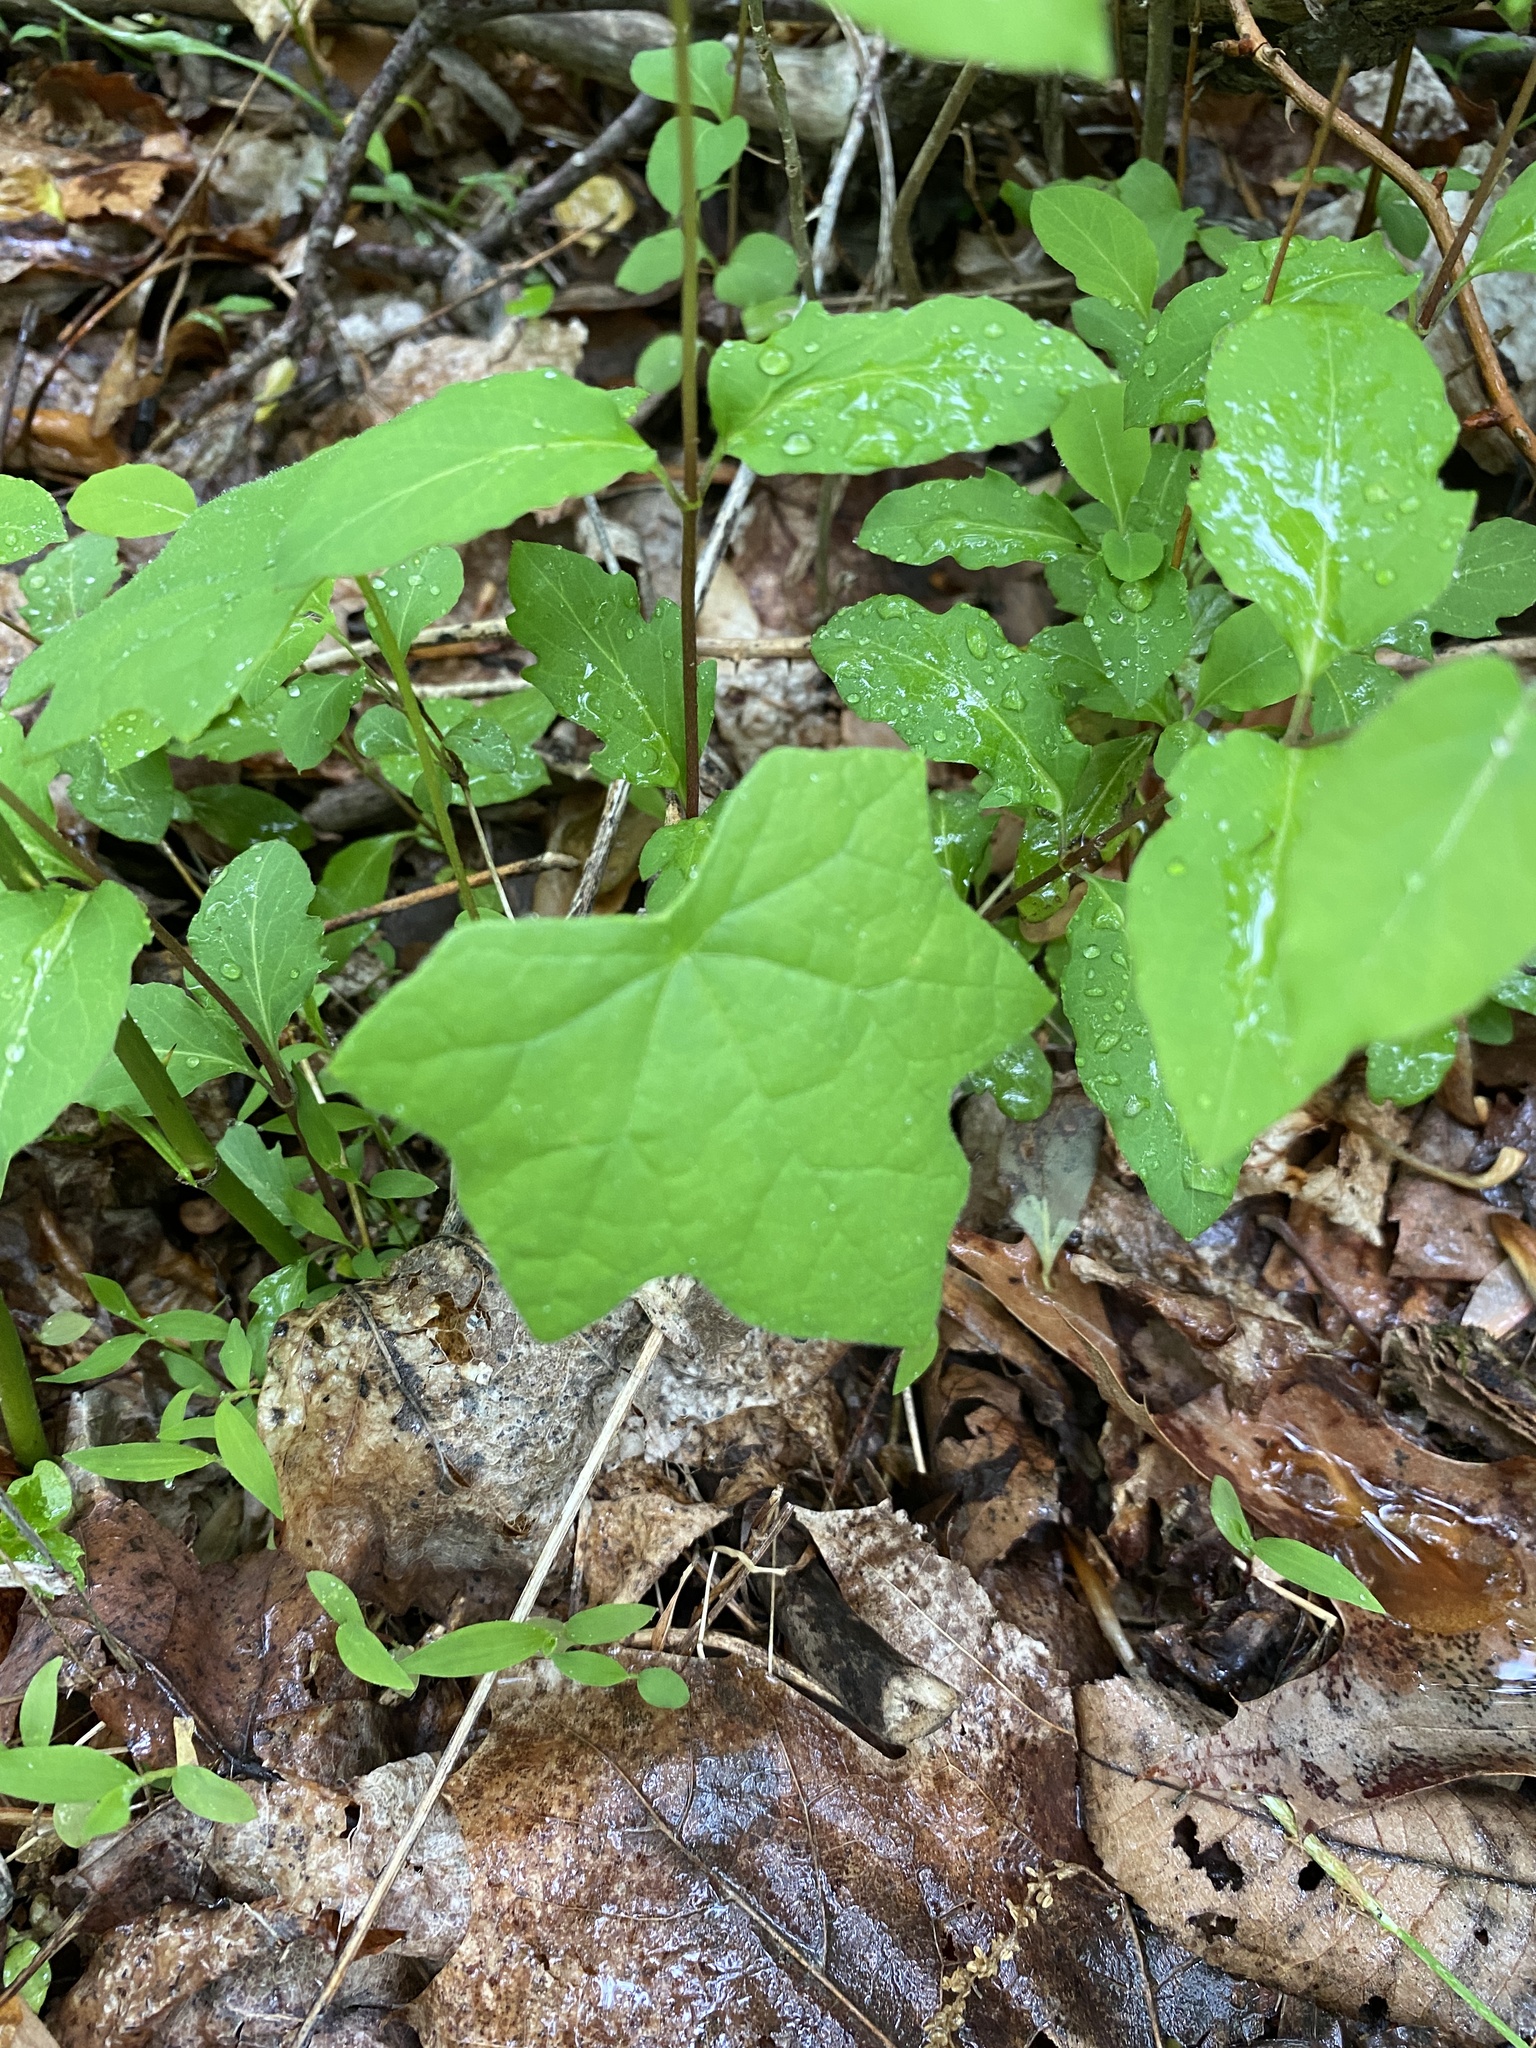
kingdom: Plantae
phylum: Tracheophyta
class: Magnoliopsida
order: Ranunculales
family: Menispermaceae
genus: Menispermum
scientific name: Menispermum canadense
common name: Moonseed
